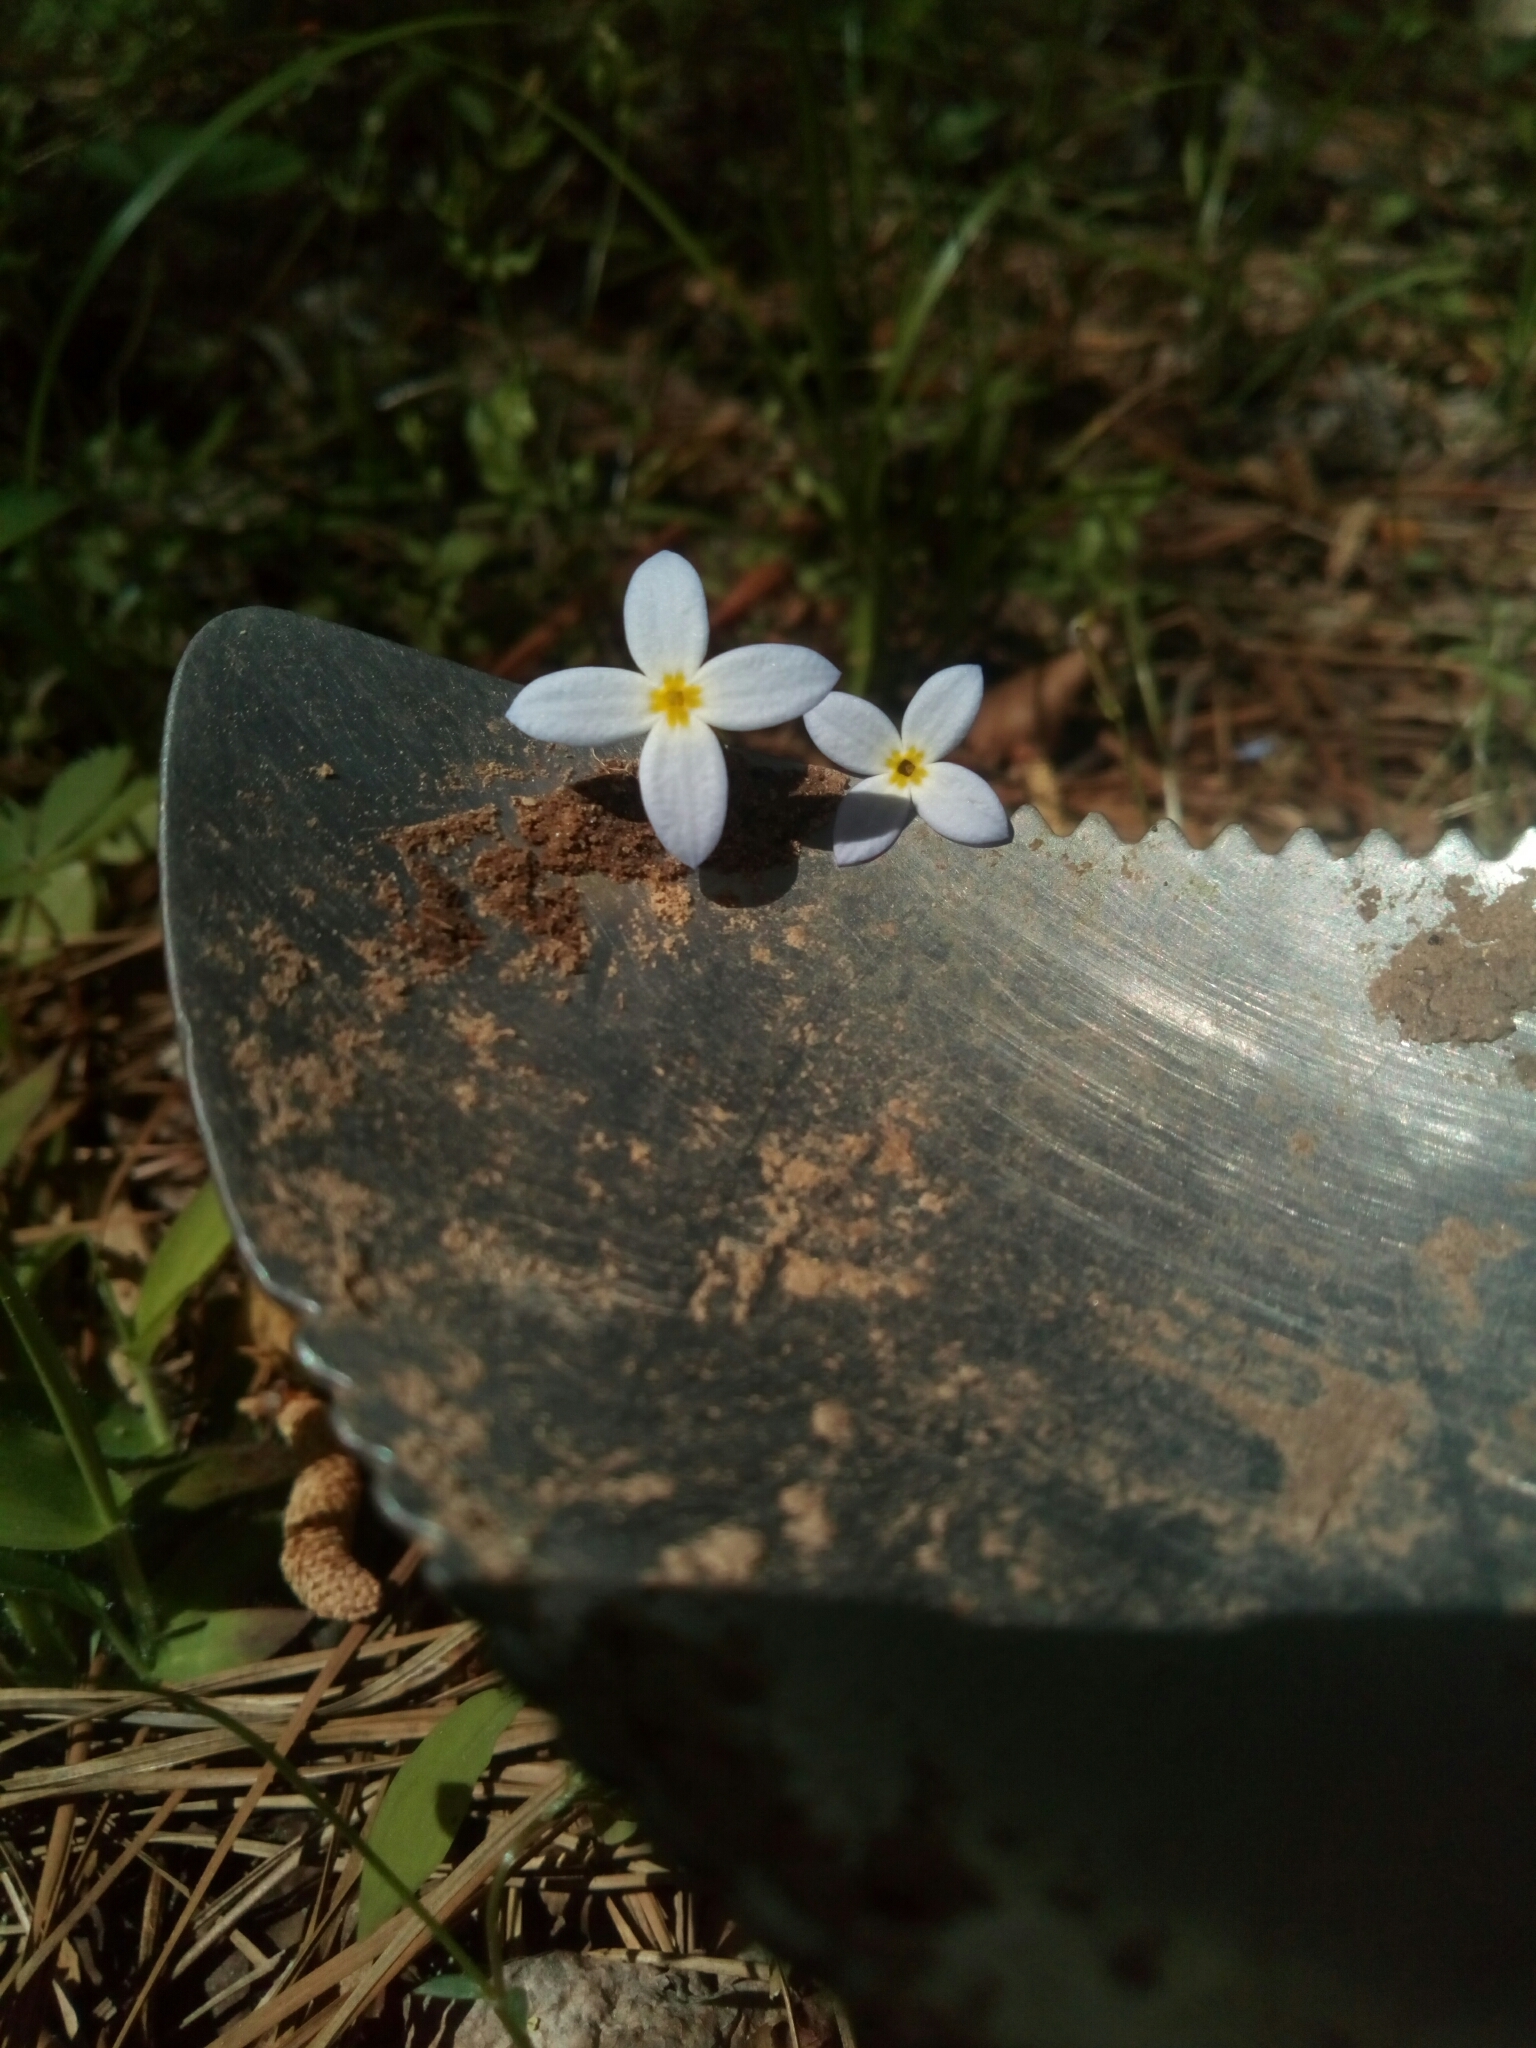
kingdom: Plantae
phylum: Tracheophyta
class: Magnoliopsida
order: Gentianales
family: Rubiaceae
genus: Houstonia
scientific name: Houstonia caerulea
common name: Bluets
